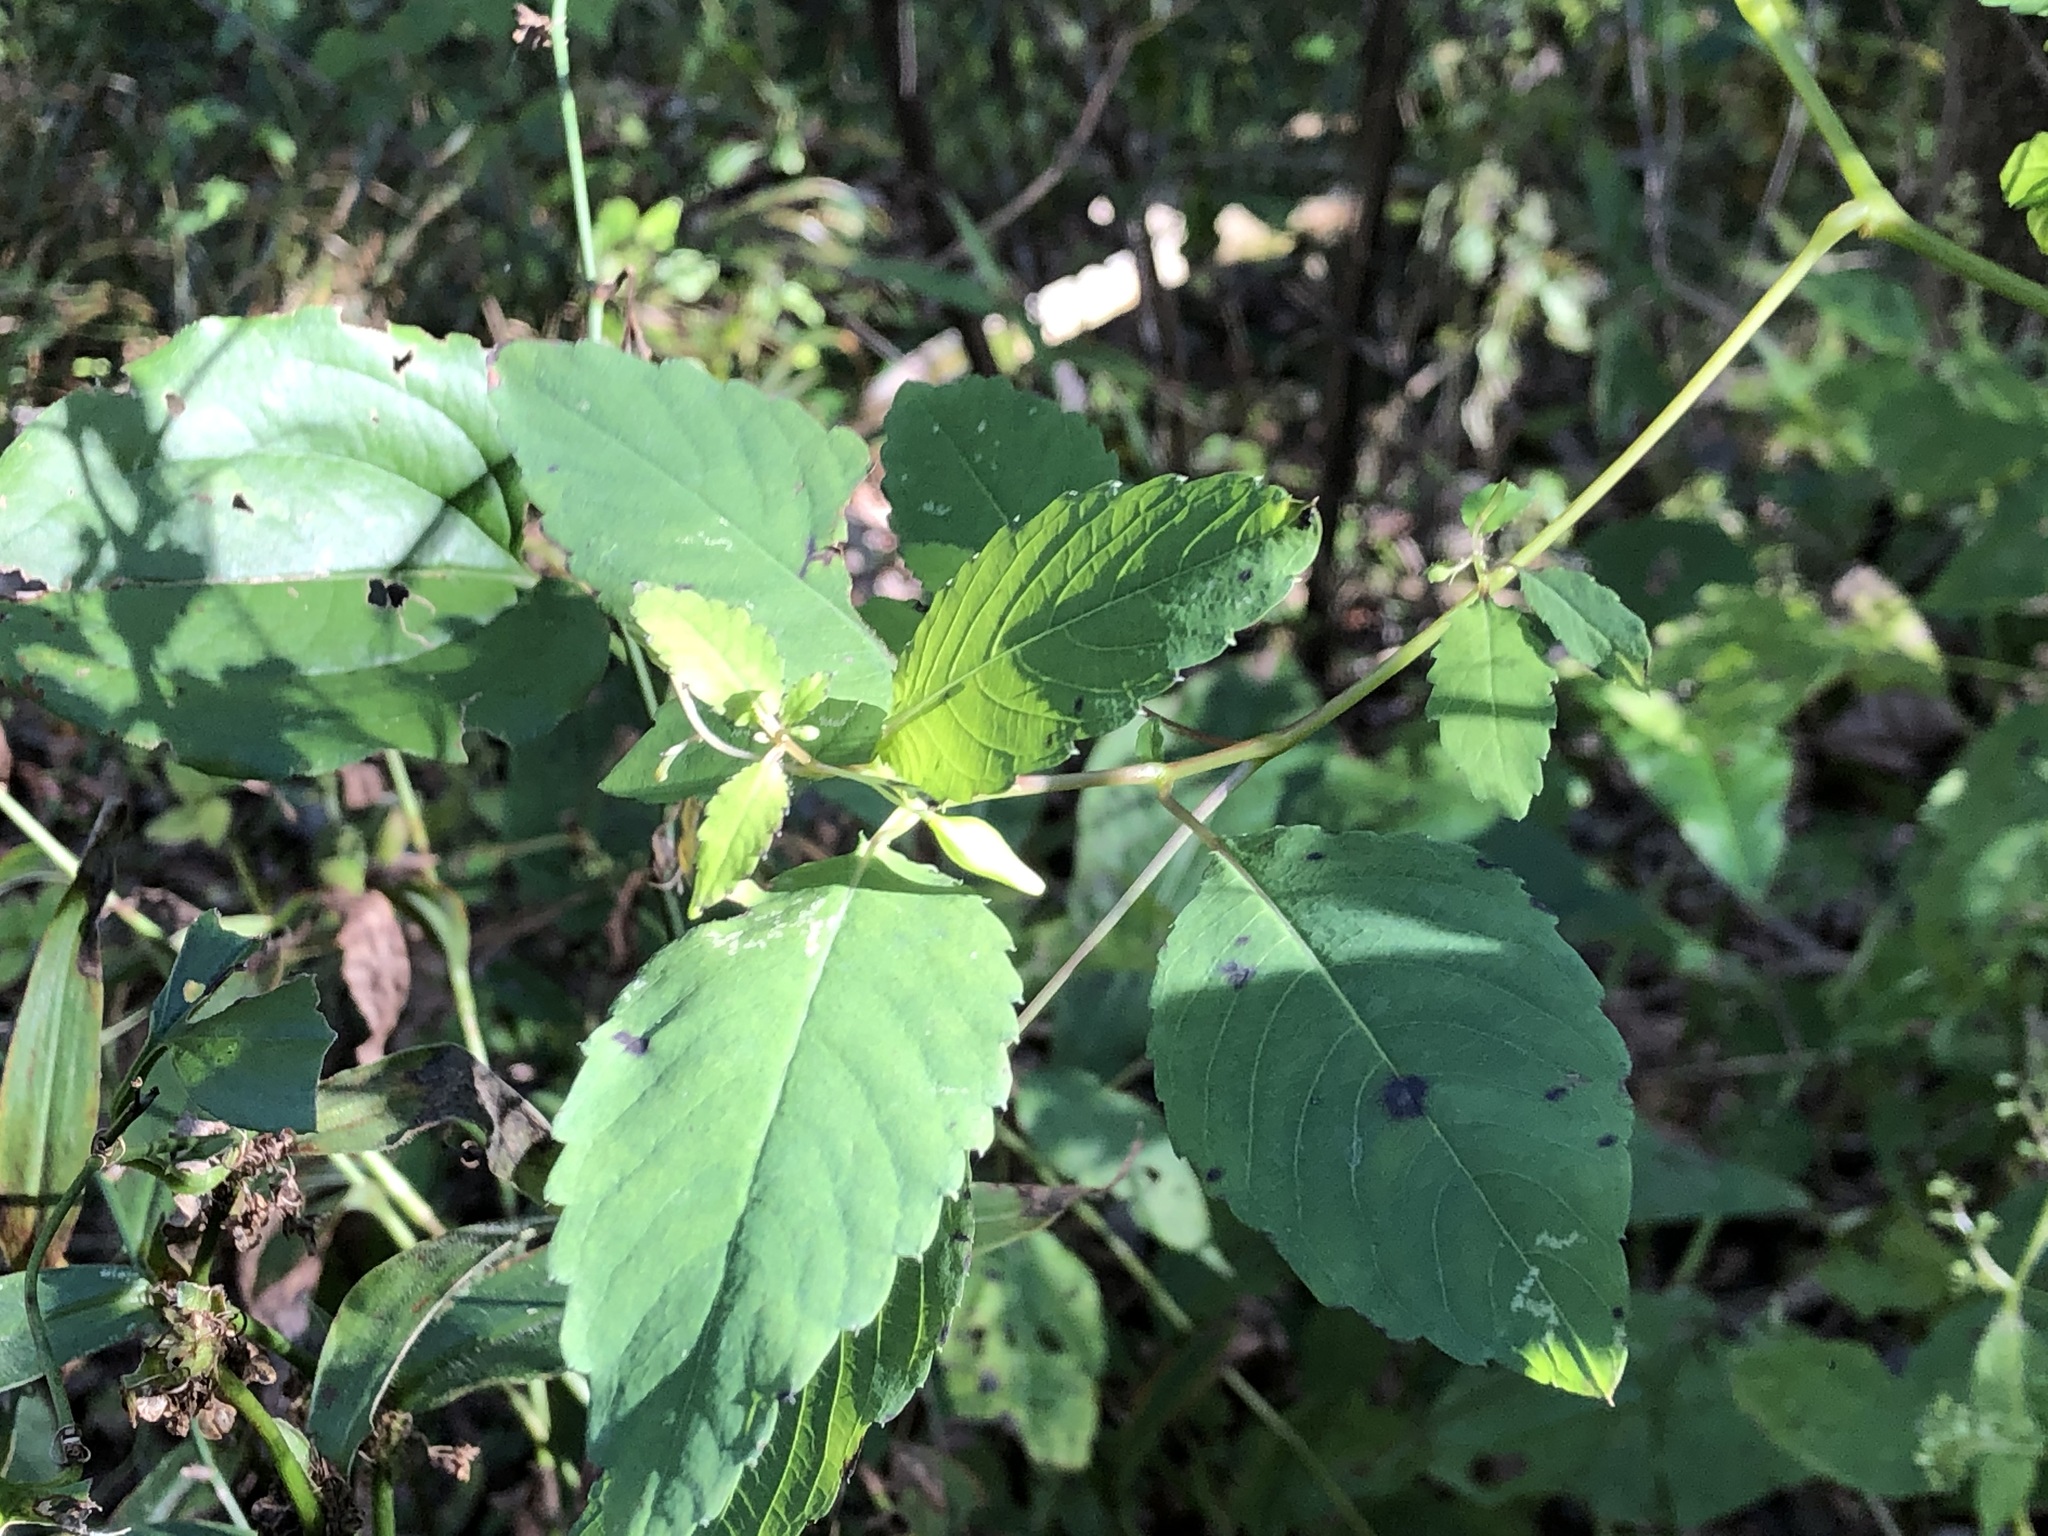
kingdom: Plantae
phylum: Tracheophyta
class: Magnoliopsida
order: Ericales
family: Balsaminaceae
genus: Impatiens
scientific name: Impatiens capensis
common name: Orange balsam
